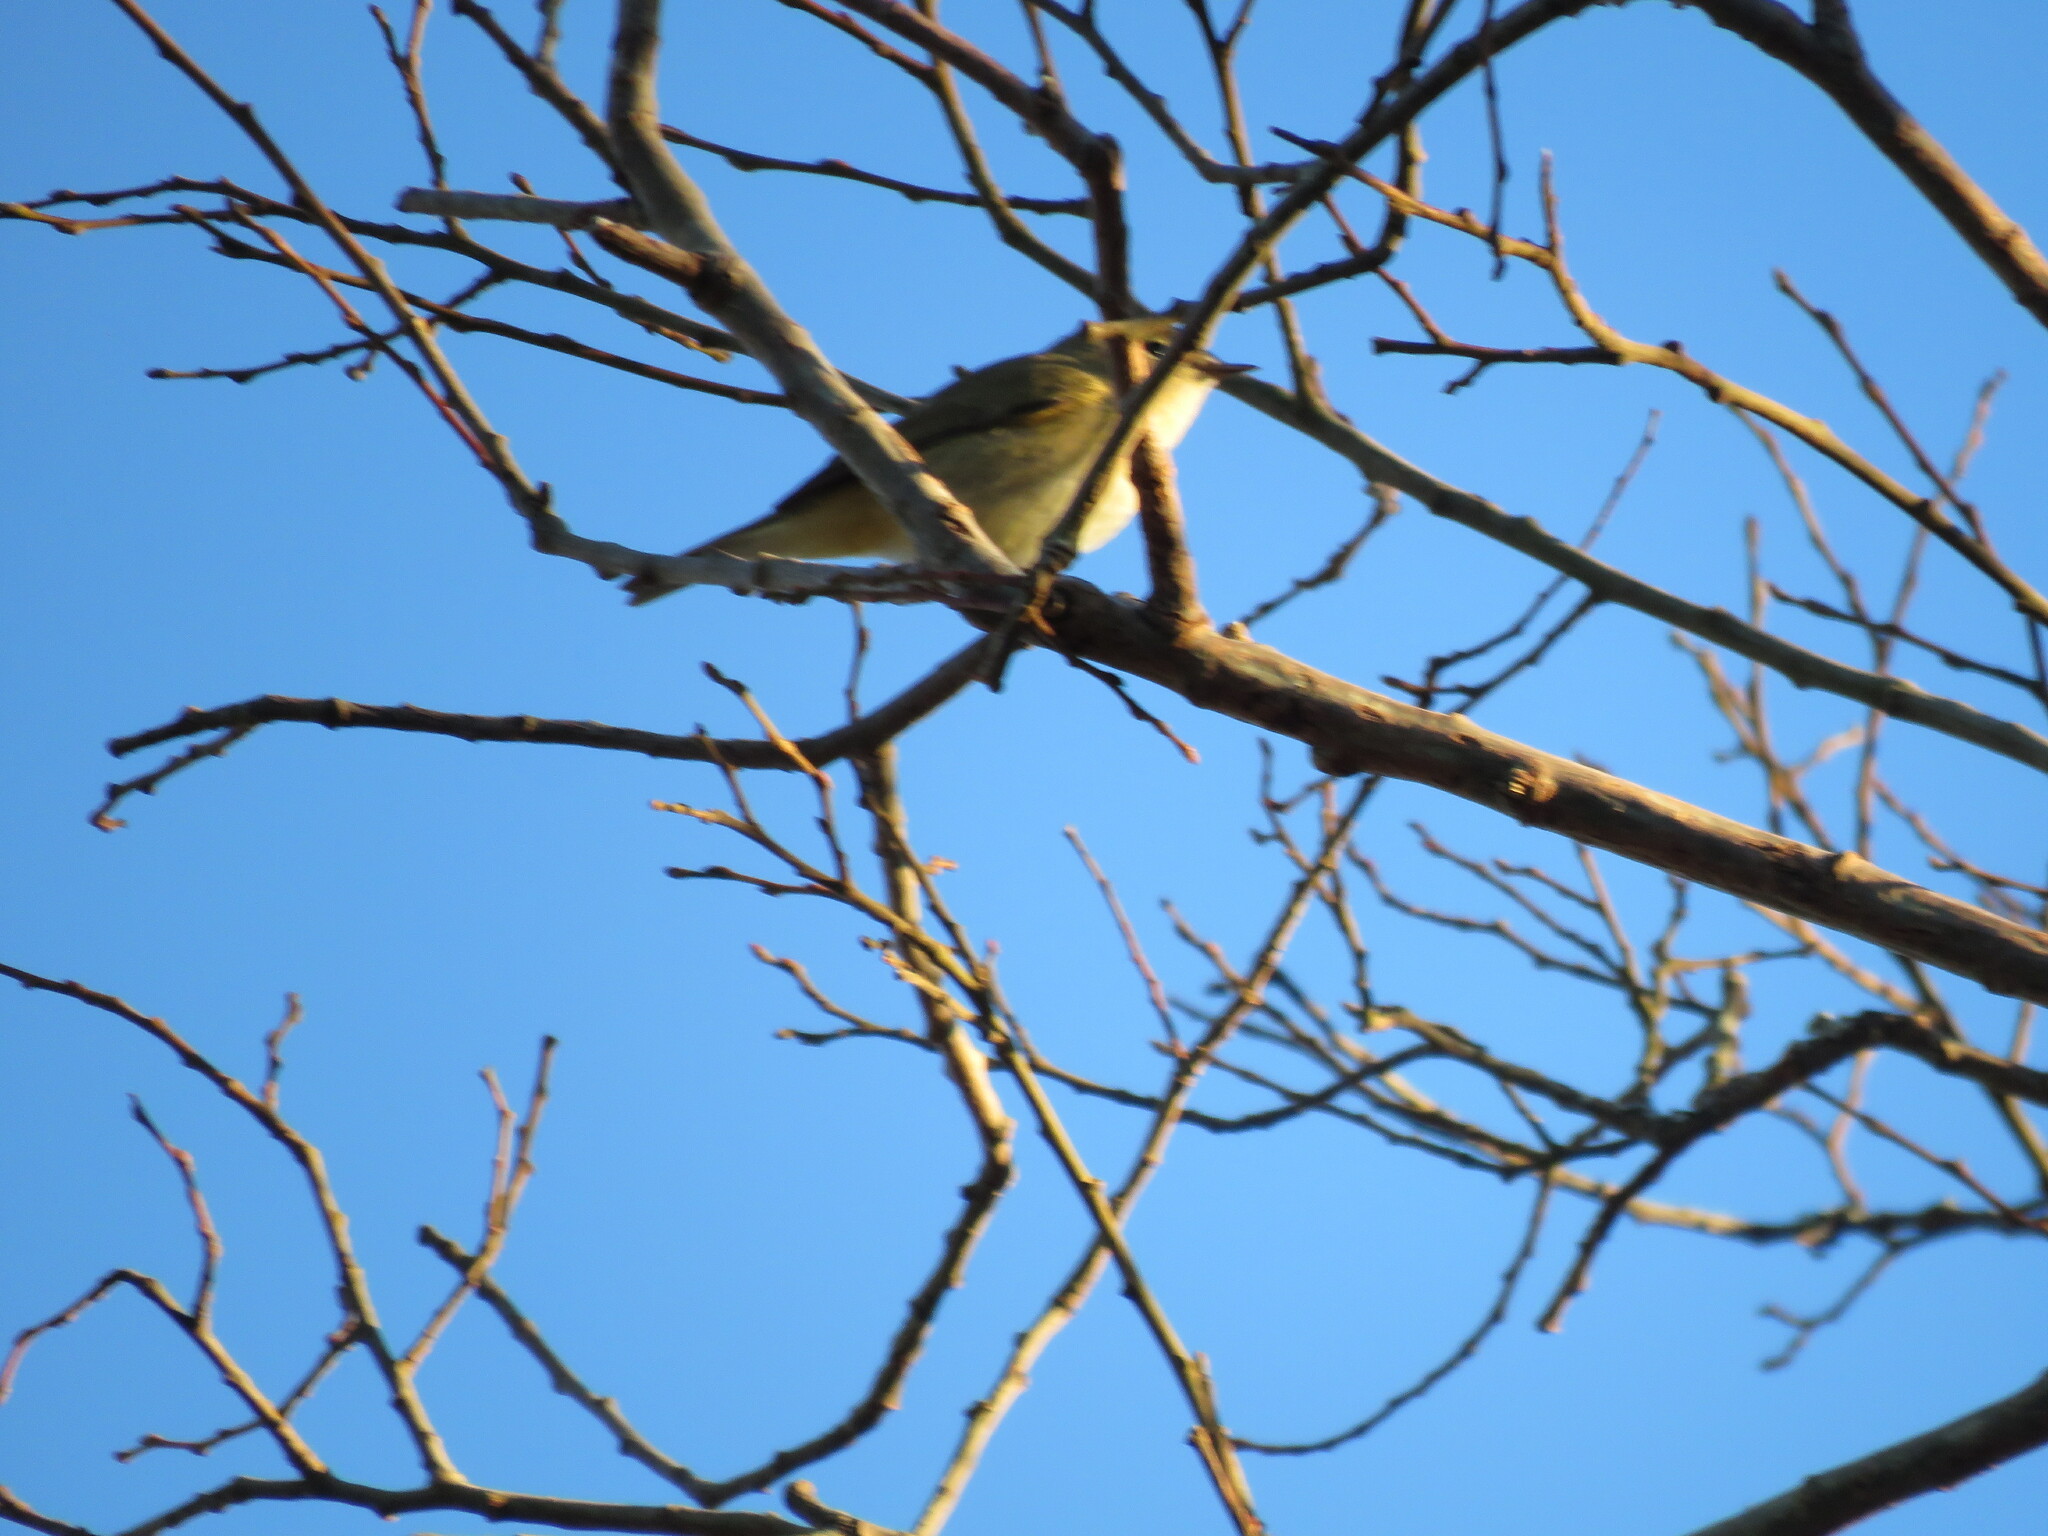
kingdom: Animalia
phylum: Chordata
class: Aves
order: Passeriformes
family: Phylloscopidae
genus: Phylloscopus
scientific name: Phylloscopus collybita
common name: Common chiffchaff
